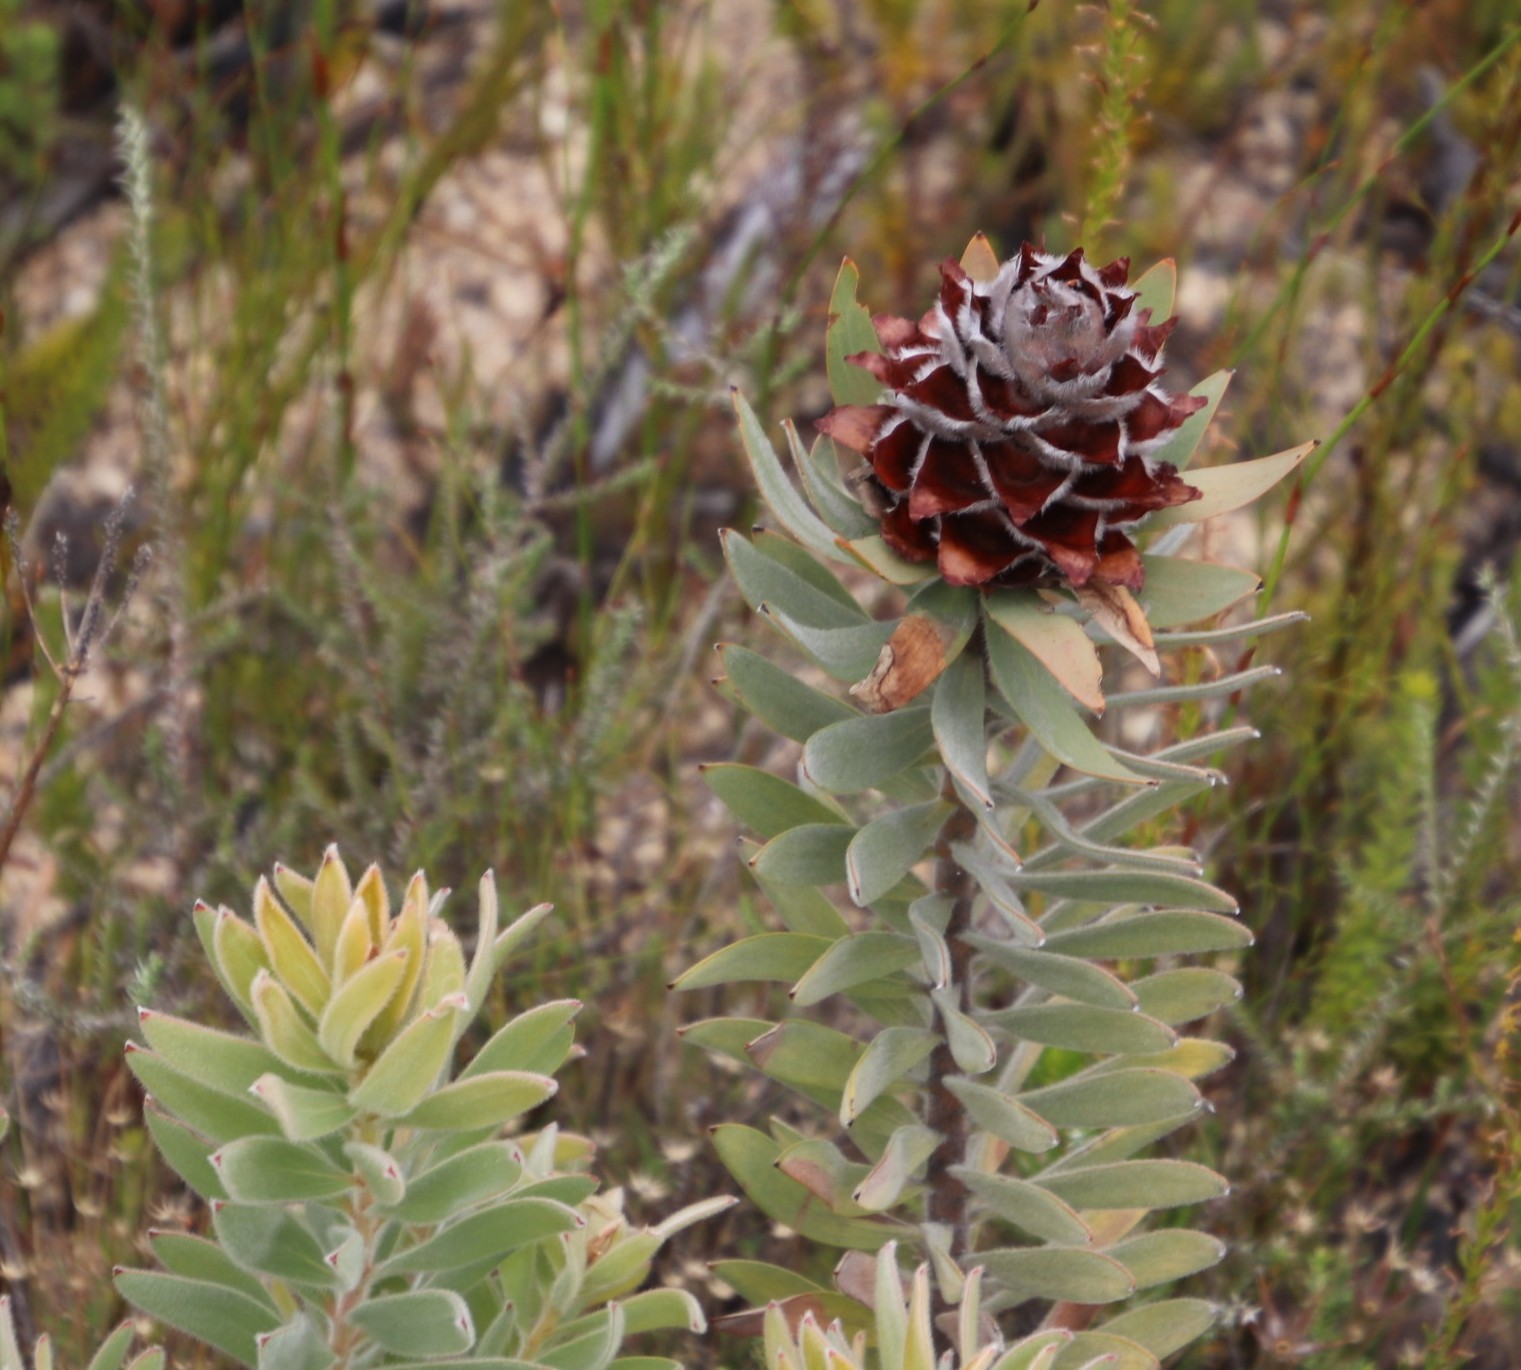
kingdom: Plantae
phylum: Tracheophyta
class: Magnoliopsida
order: Proteales
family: Proteaceae
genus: Leucadendron
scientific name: Leucadendron daphnoides
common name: Du toit's kloof conebush
